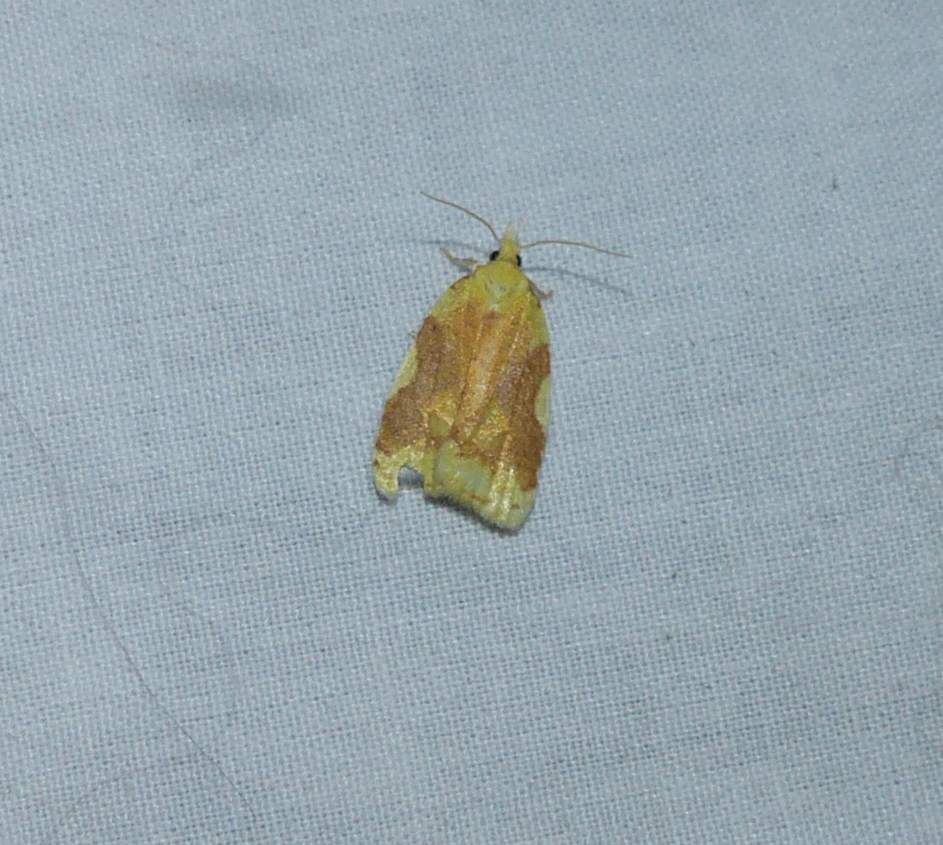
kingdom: Animalia
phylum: Arthropoda
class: Insecta
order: Lepidoptera
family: Tortricidae
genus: Cenopis
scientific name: Cenopis niveana
